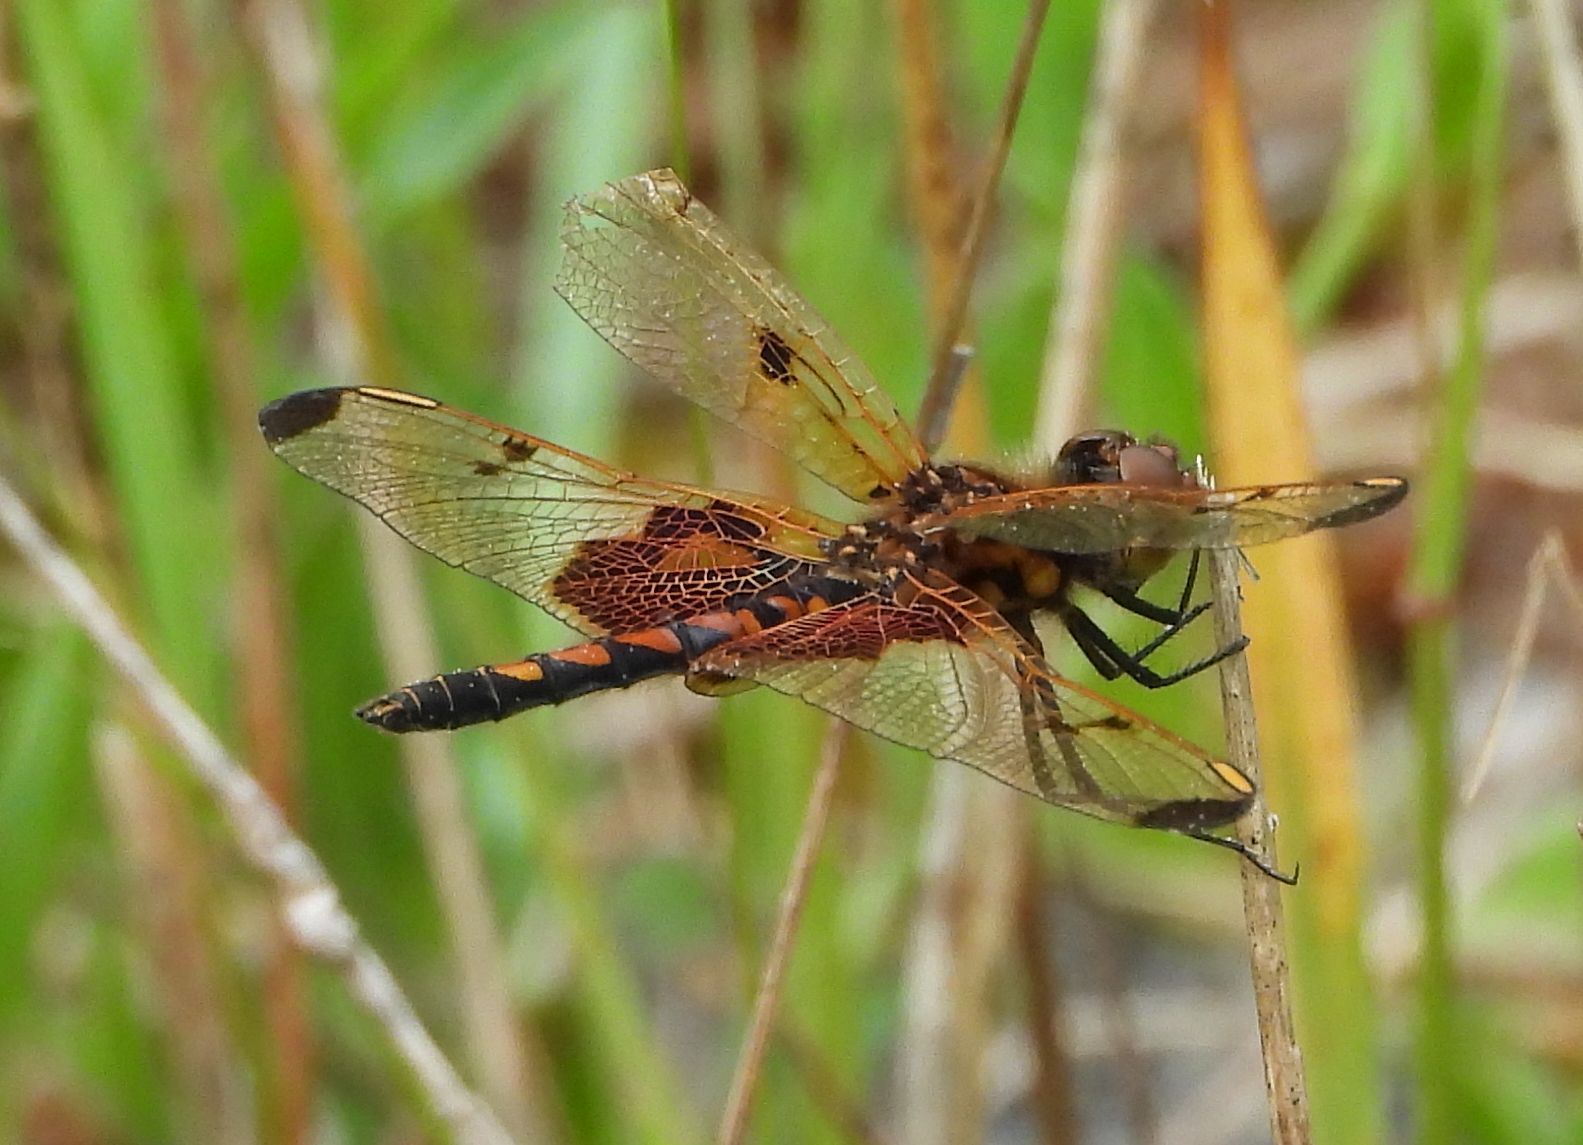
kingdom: Animalia
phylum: Arthropoda
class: Insecta
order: Odonata
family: Libellulidae
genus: Celithemis
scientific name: Celithemis elisa
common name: Calico pennant
